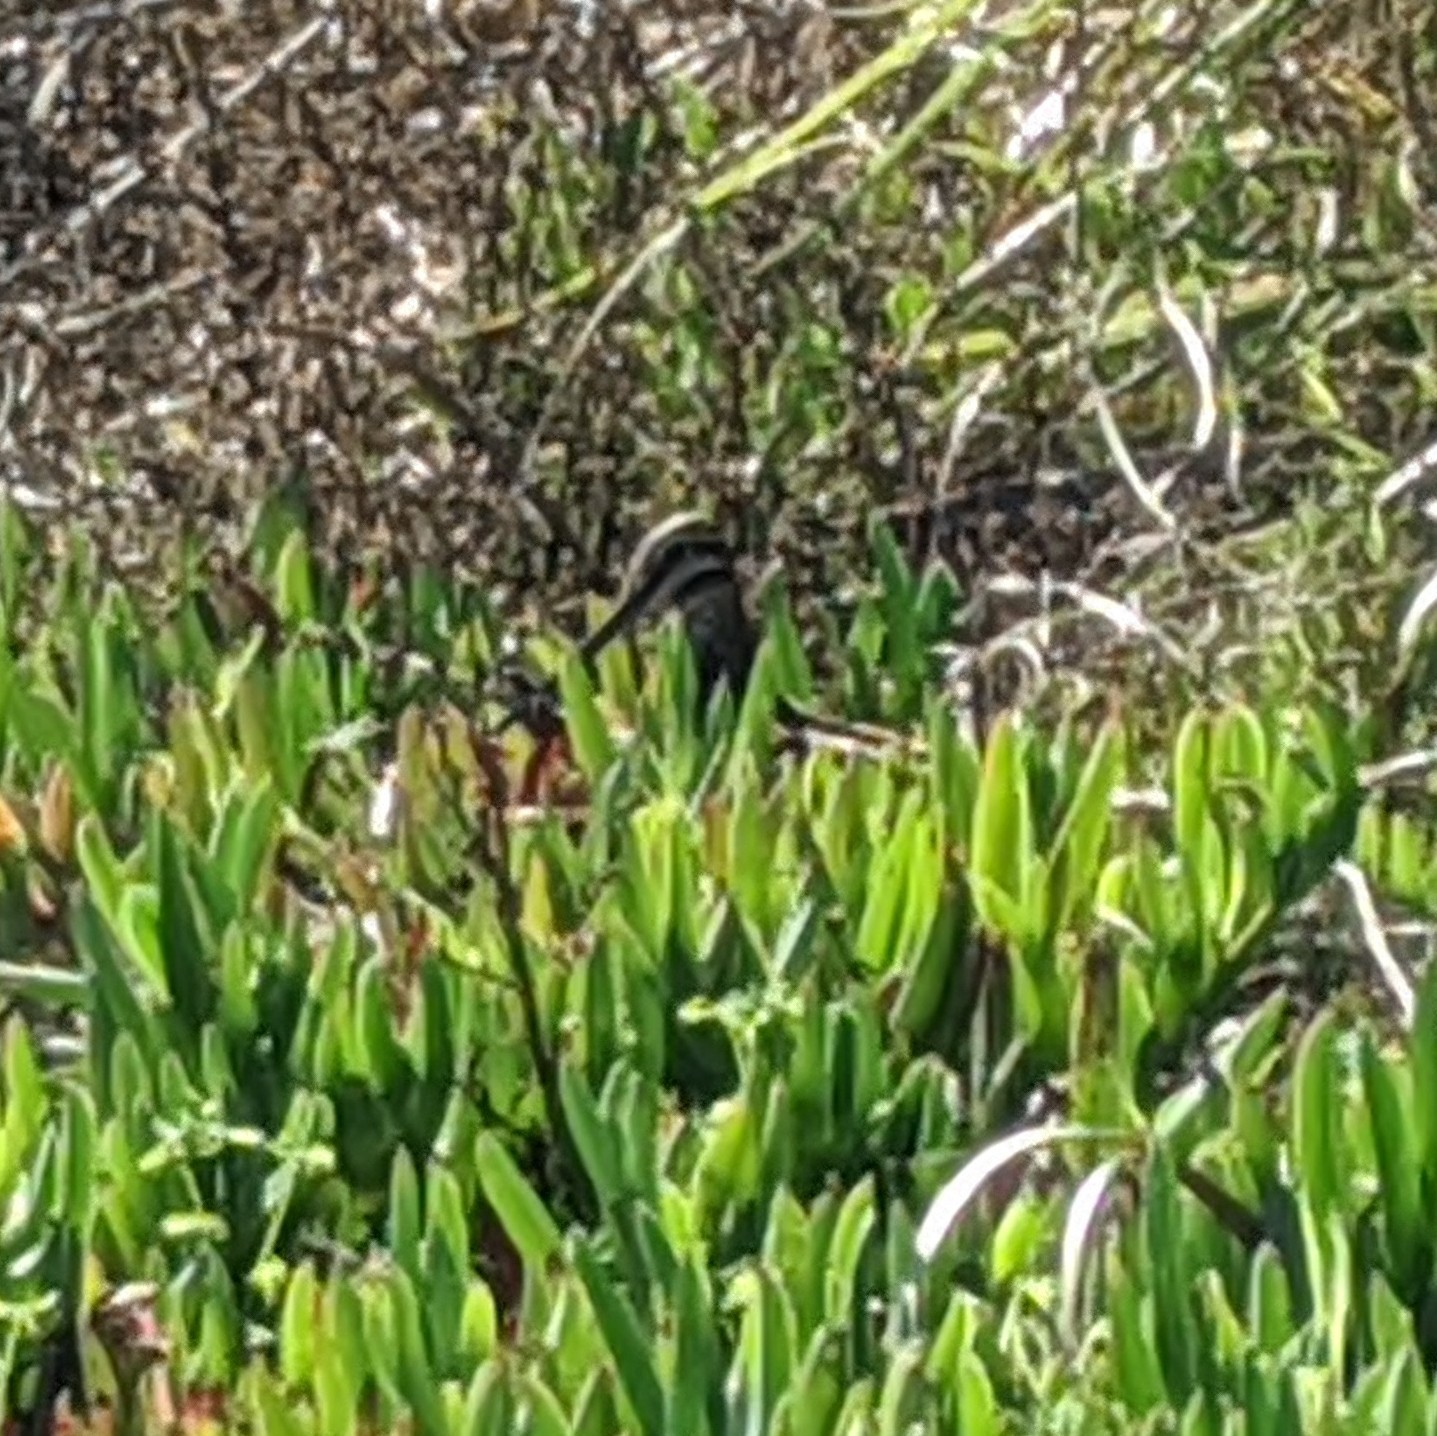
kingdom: Animalia
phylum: Chordata
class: Aves
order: Charadriiformes
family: Scolopacidae
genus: Gallinago
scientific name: Gallinago delicata
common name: Wilson's snipe
